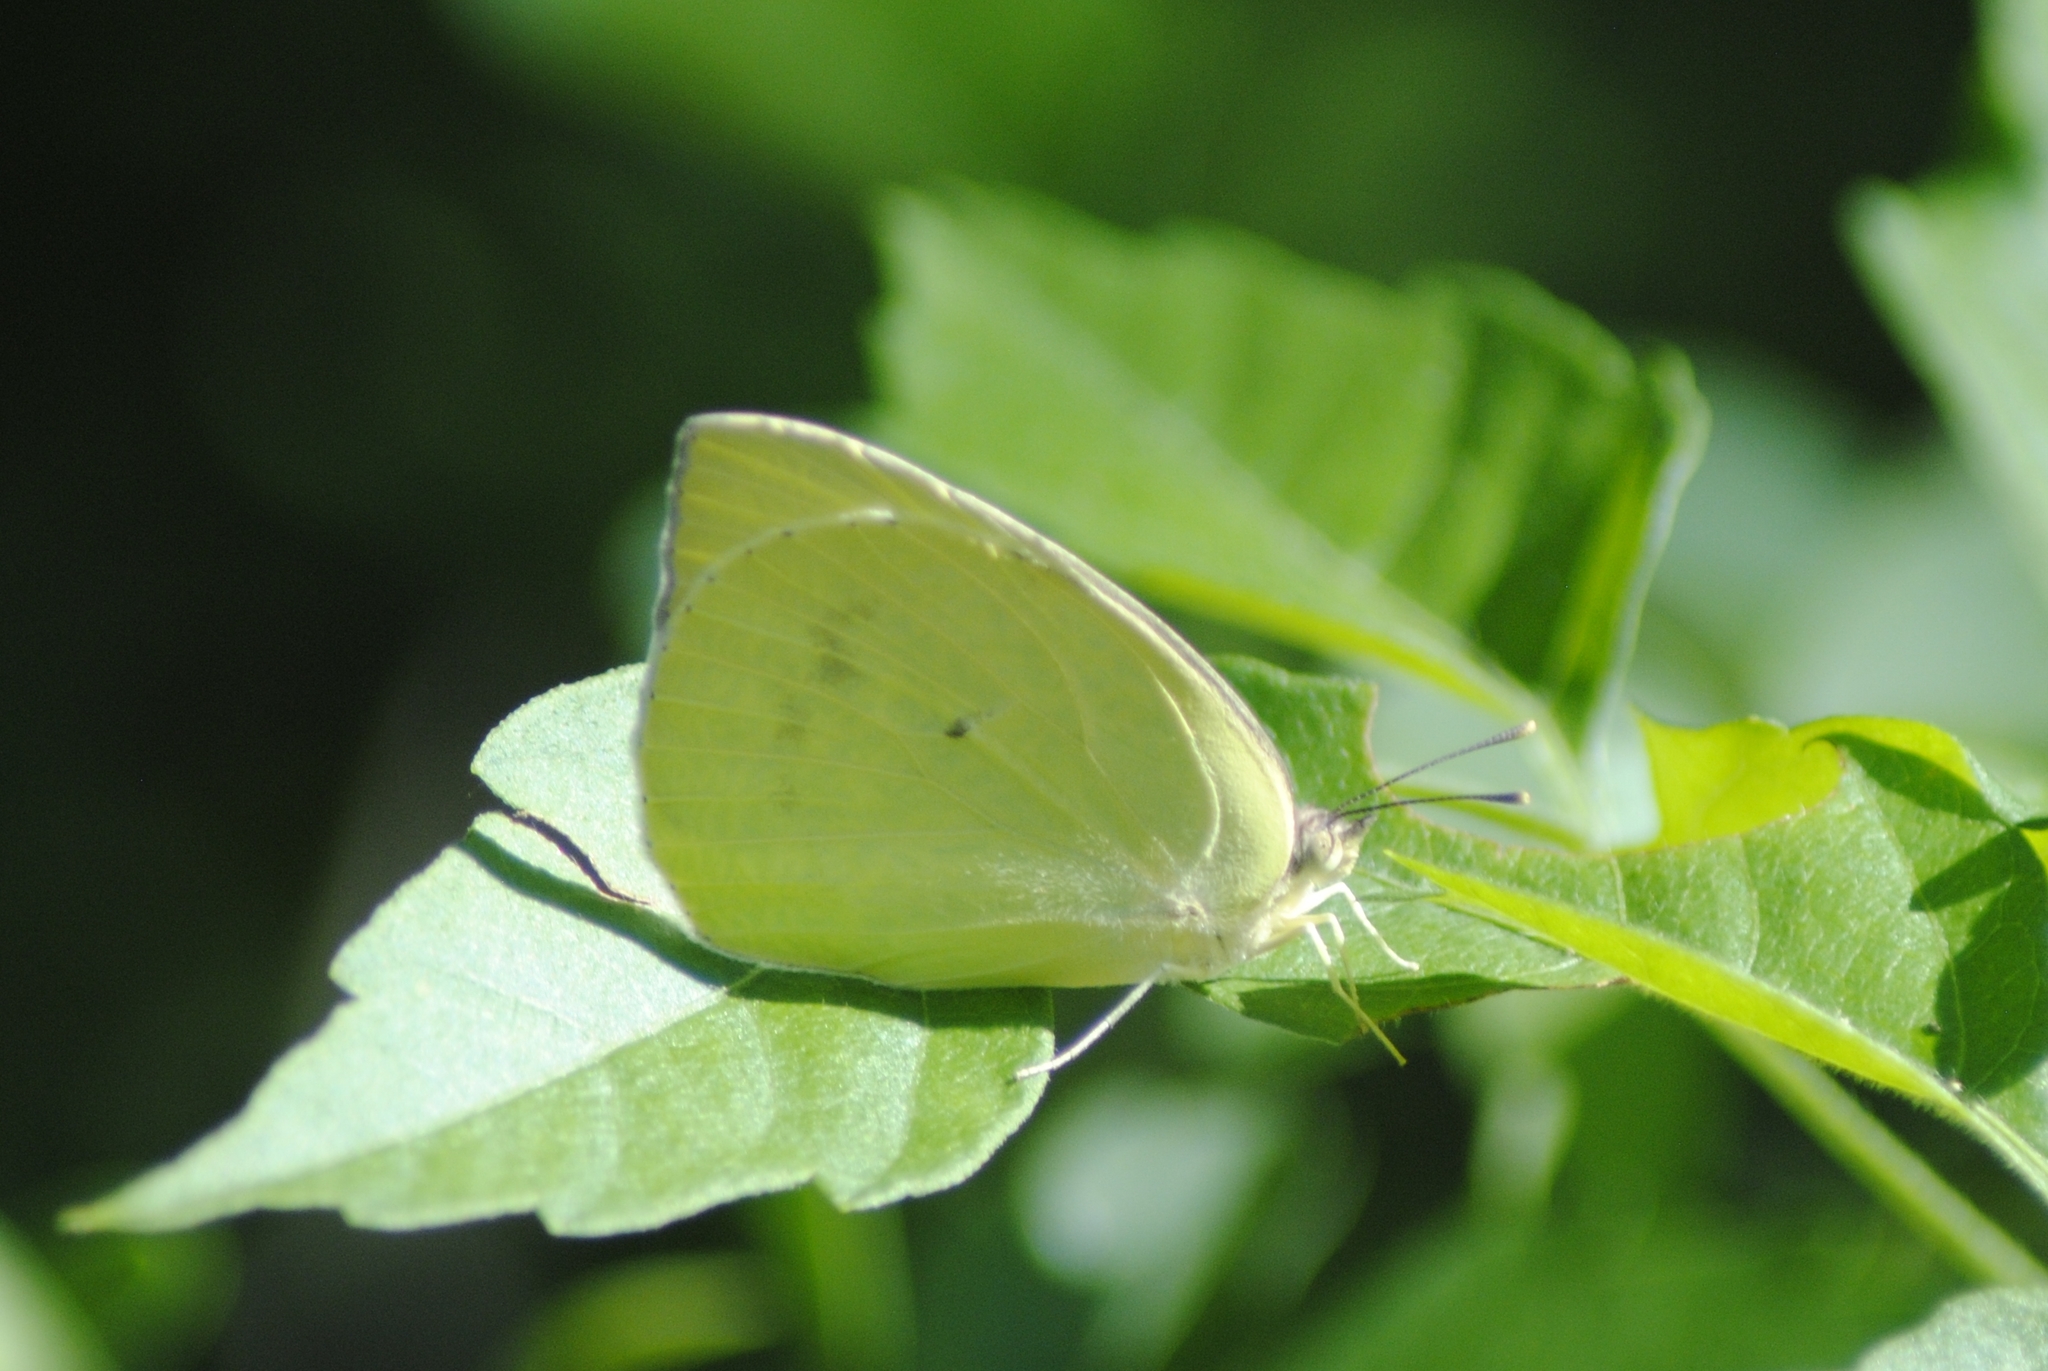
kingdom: Animalia
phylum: Arthropoda
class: Insecta
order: Lepidoptera
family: Pieridae
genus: Kricogonia
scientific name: Kricogonia lyside
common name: Guayacan sulphur,
